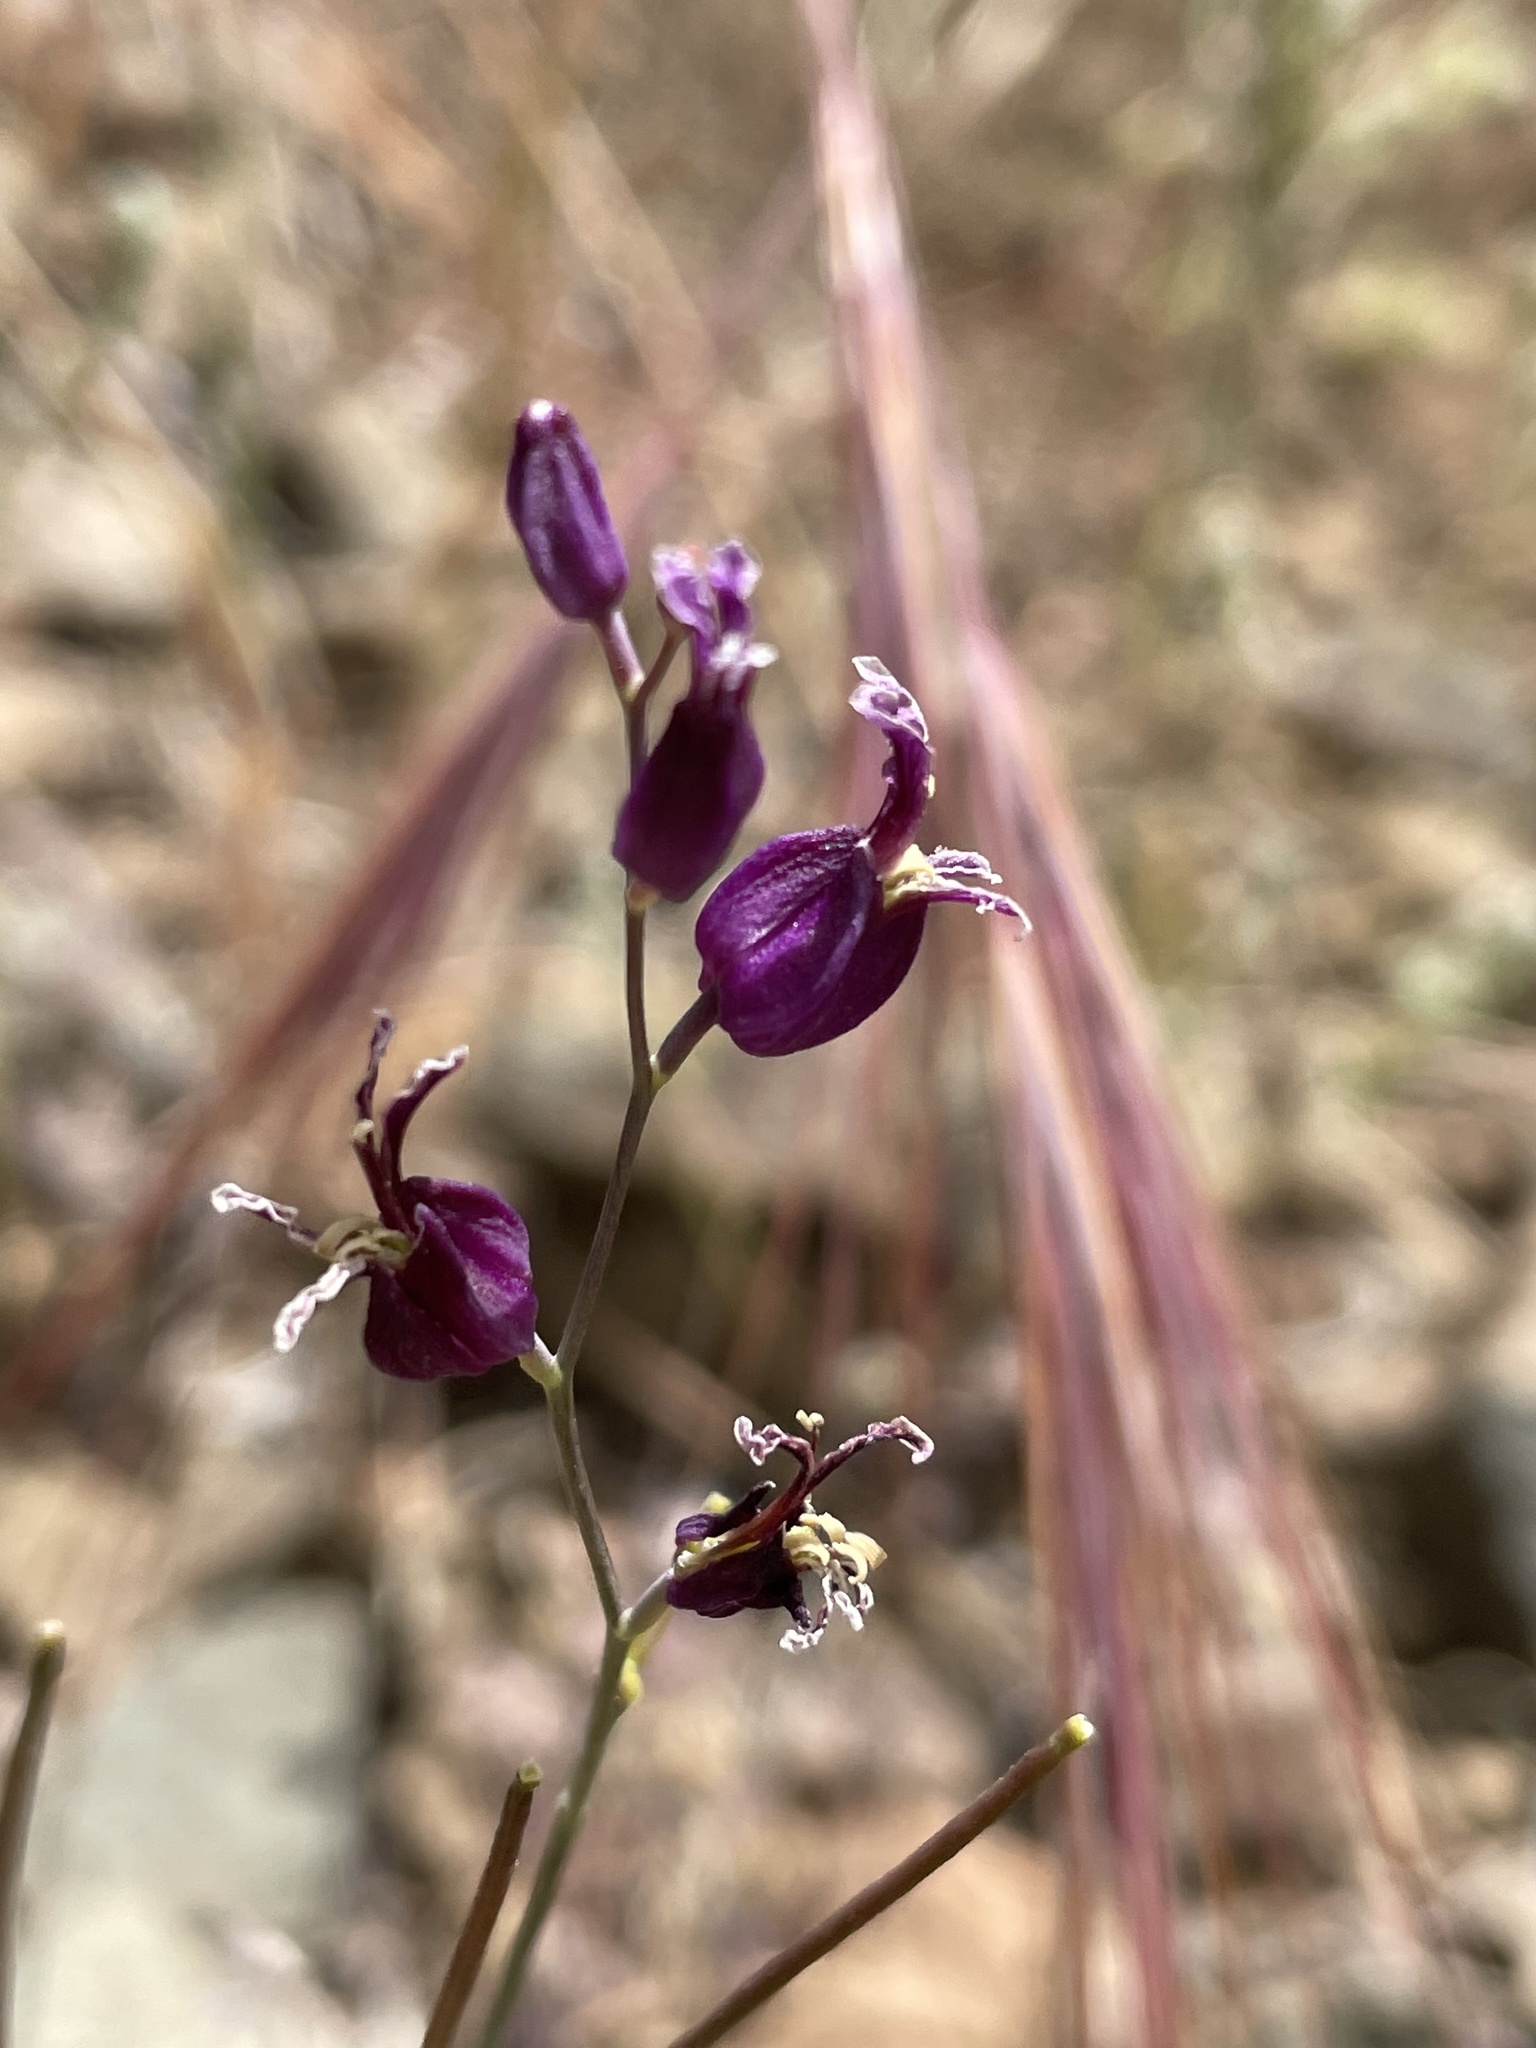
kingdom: Plantae
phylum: Tracheophyta
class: Magnoliopsida
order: Brassicales
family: Brassicaceae
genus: Streptanthus
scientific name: Streptanthus glandulosus
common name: Jewel-flower
